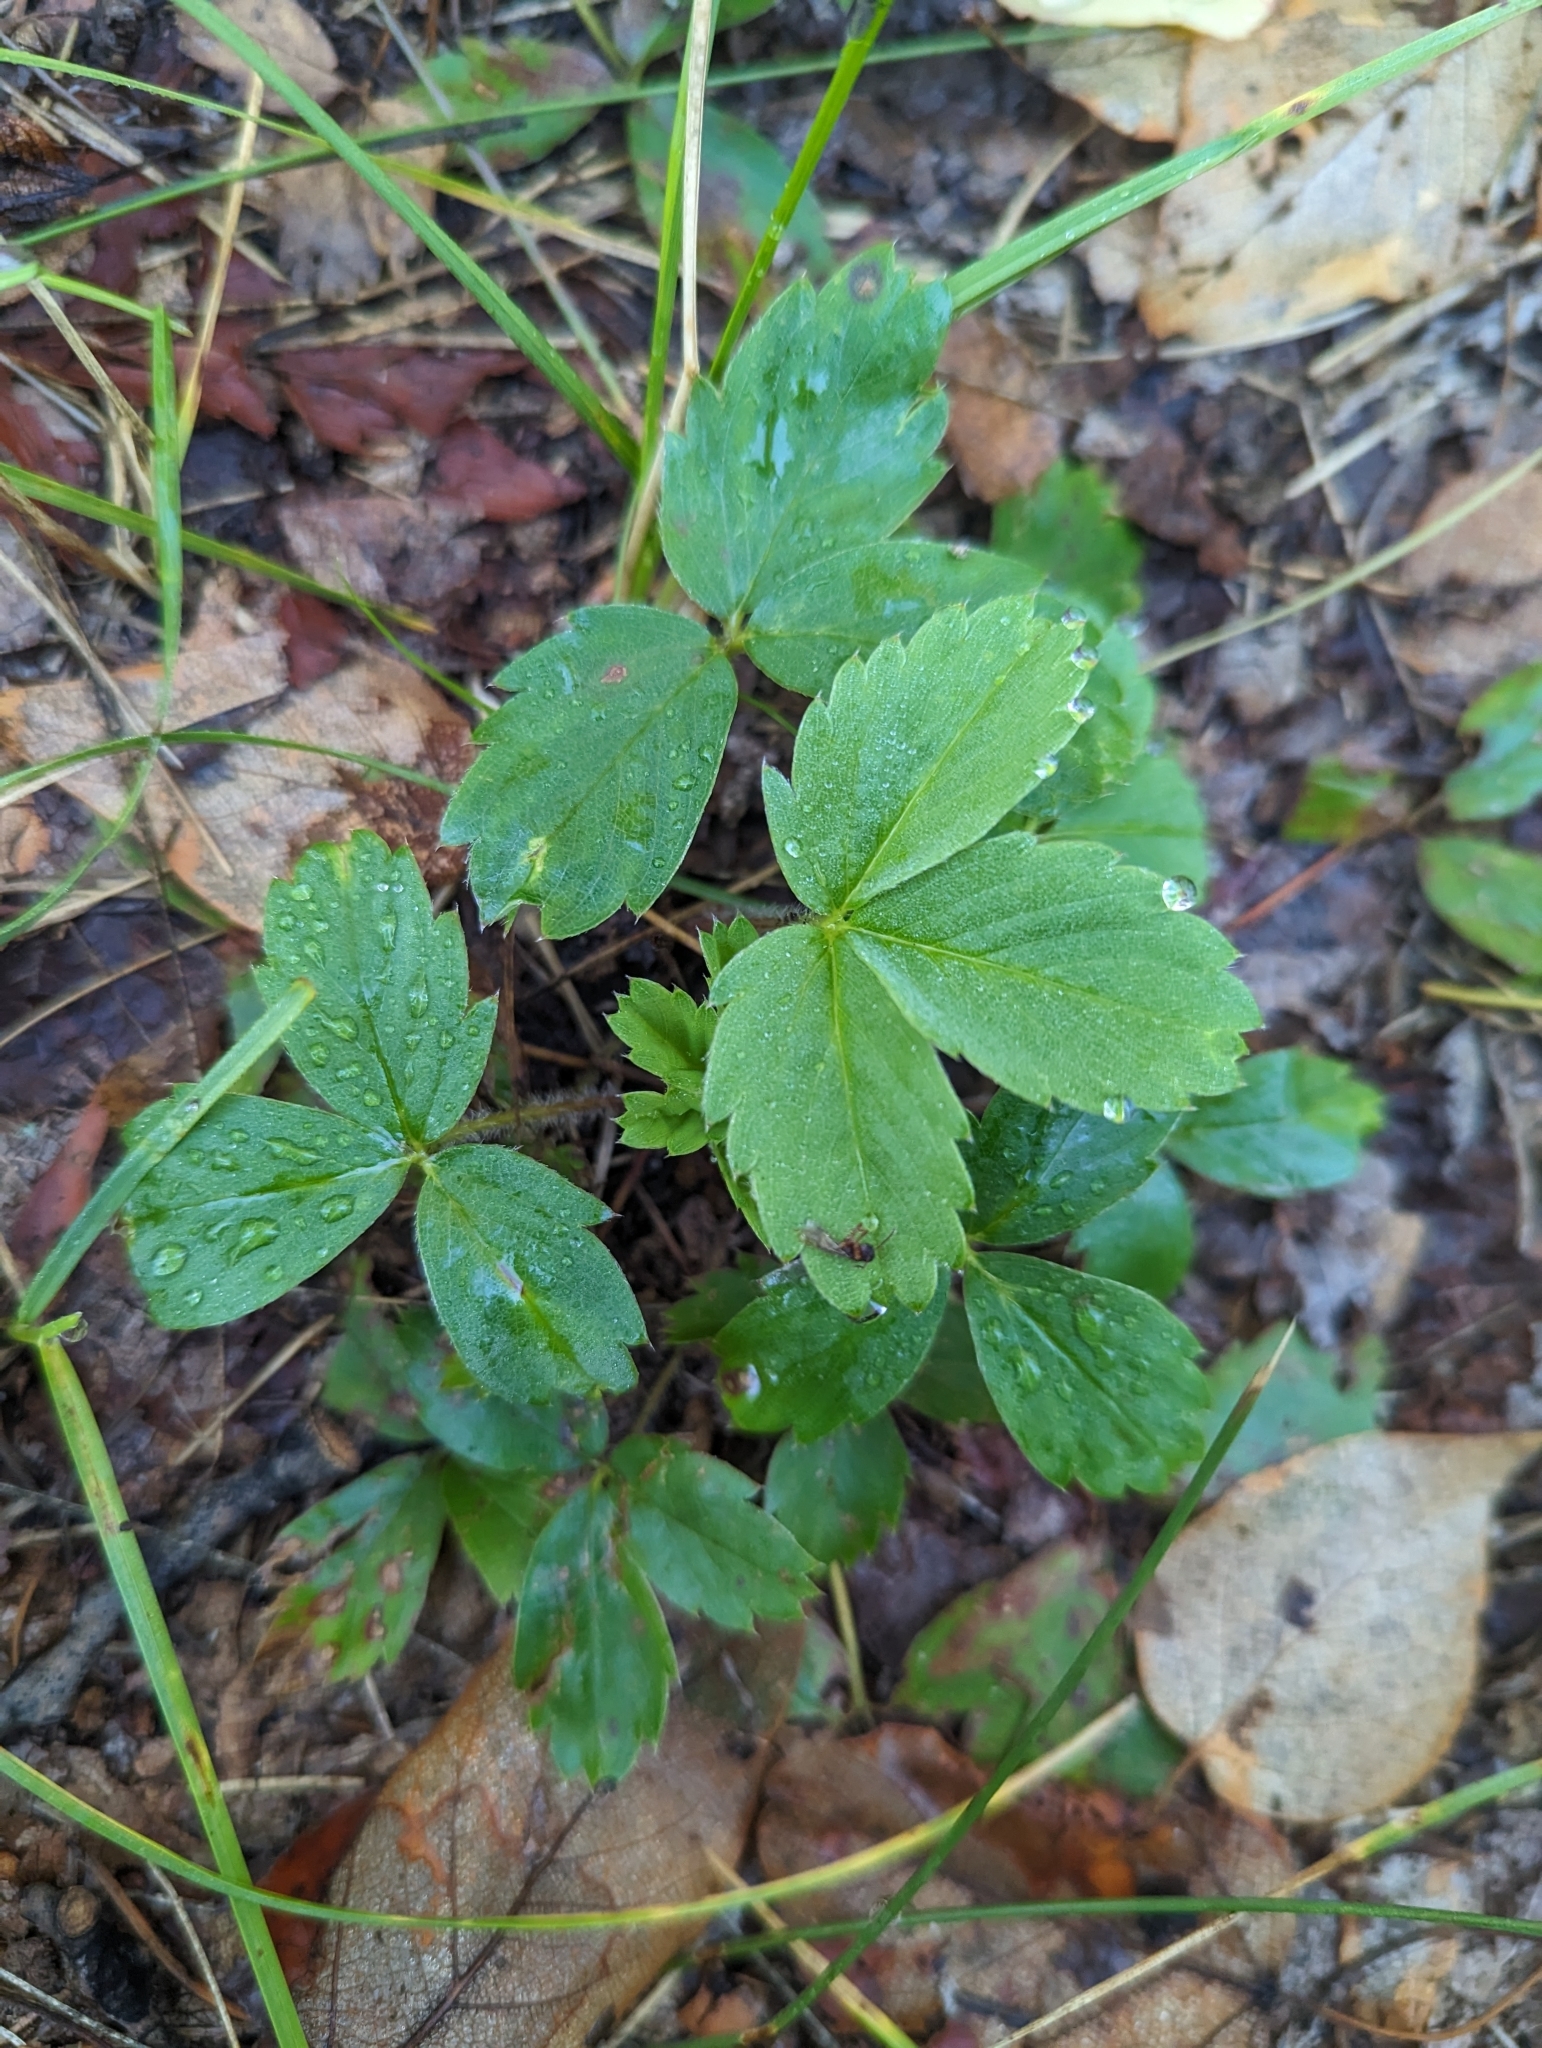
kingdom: Plantae
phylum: Tracheophyta
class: Magnoliopsida
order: Rosales
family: Rosaceae
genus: Fragaria
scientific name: Fragaria virginiana
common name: Thickleaved wild strawberry
